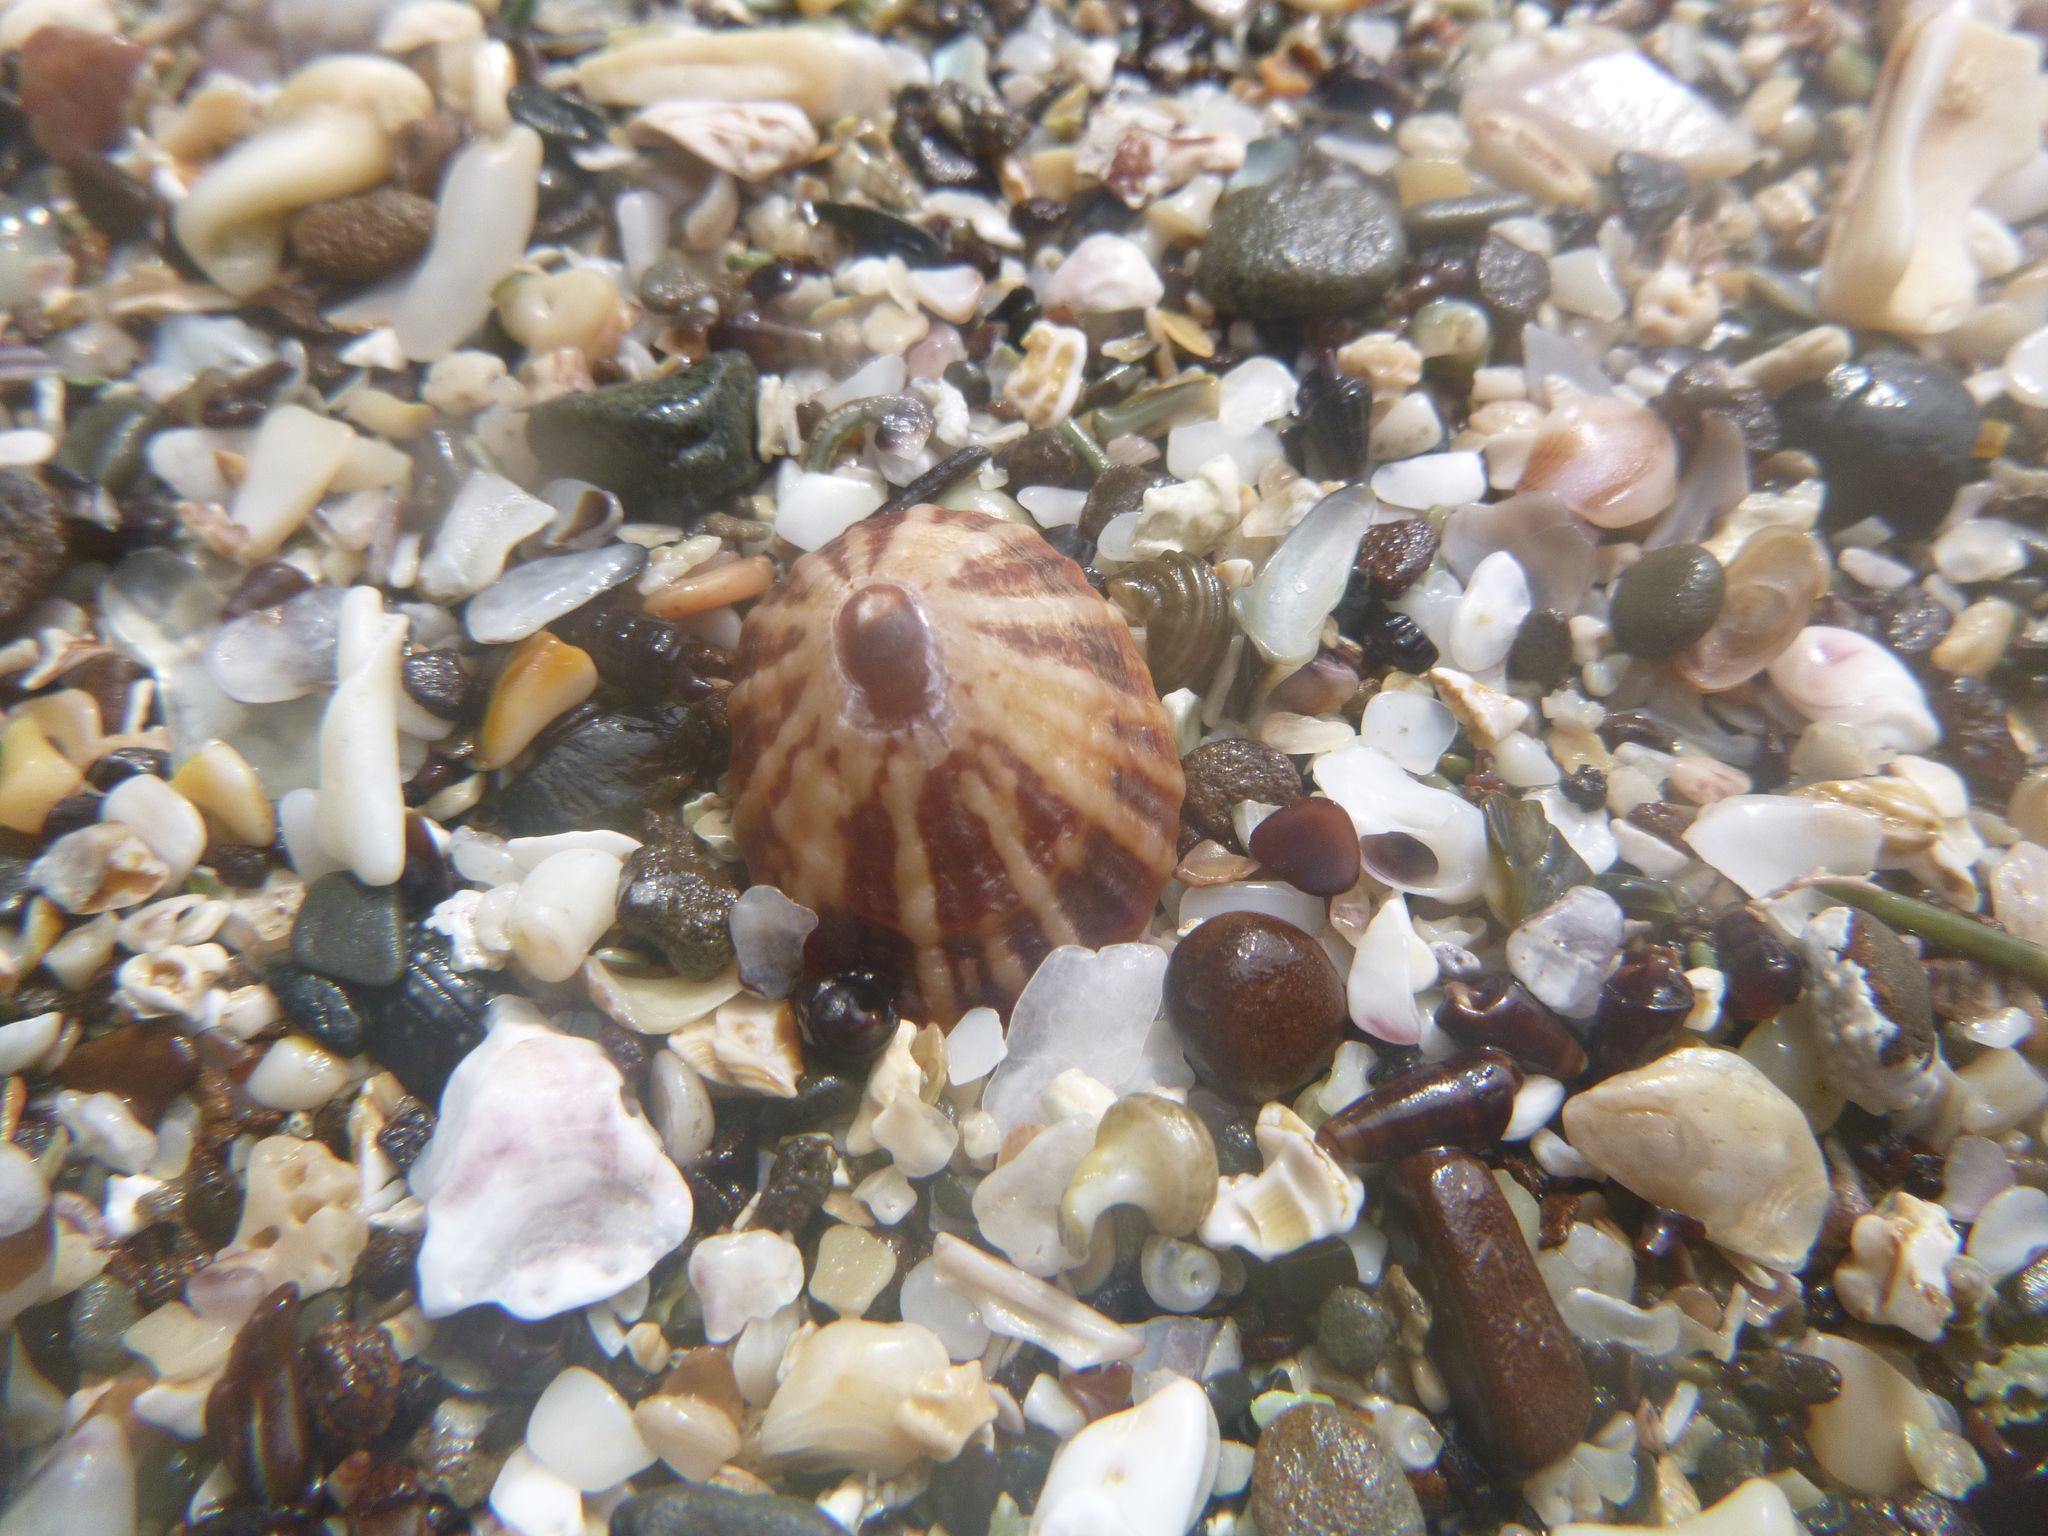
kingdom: Animalia
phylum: Mollusca
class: Gastropoda
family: Nacellidae
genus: Cellana
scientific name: Cellana stellifera
